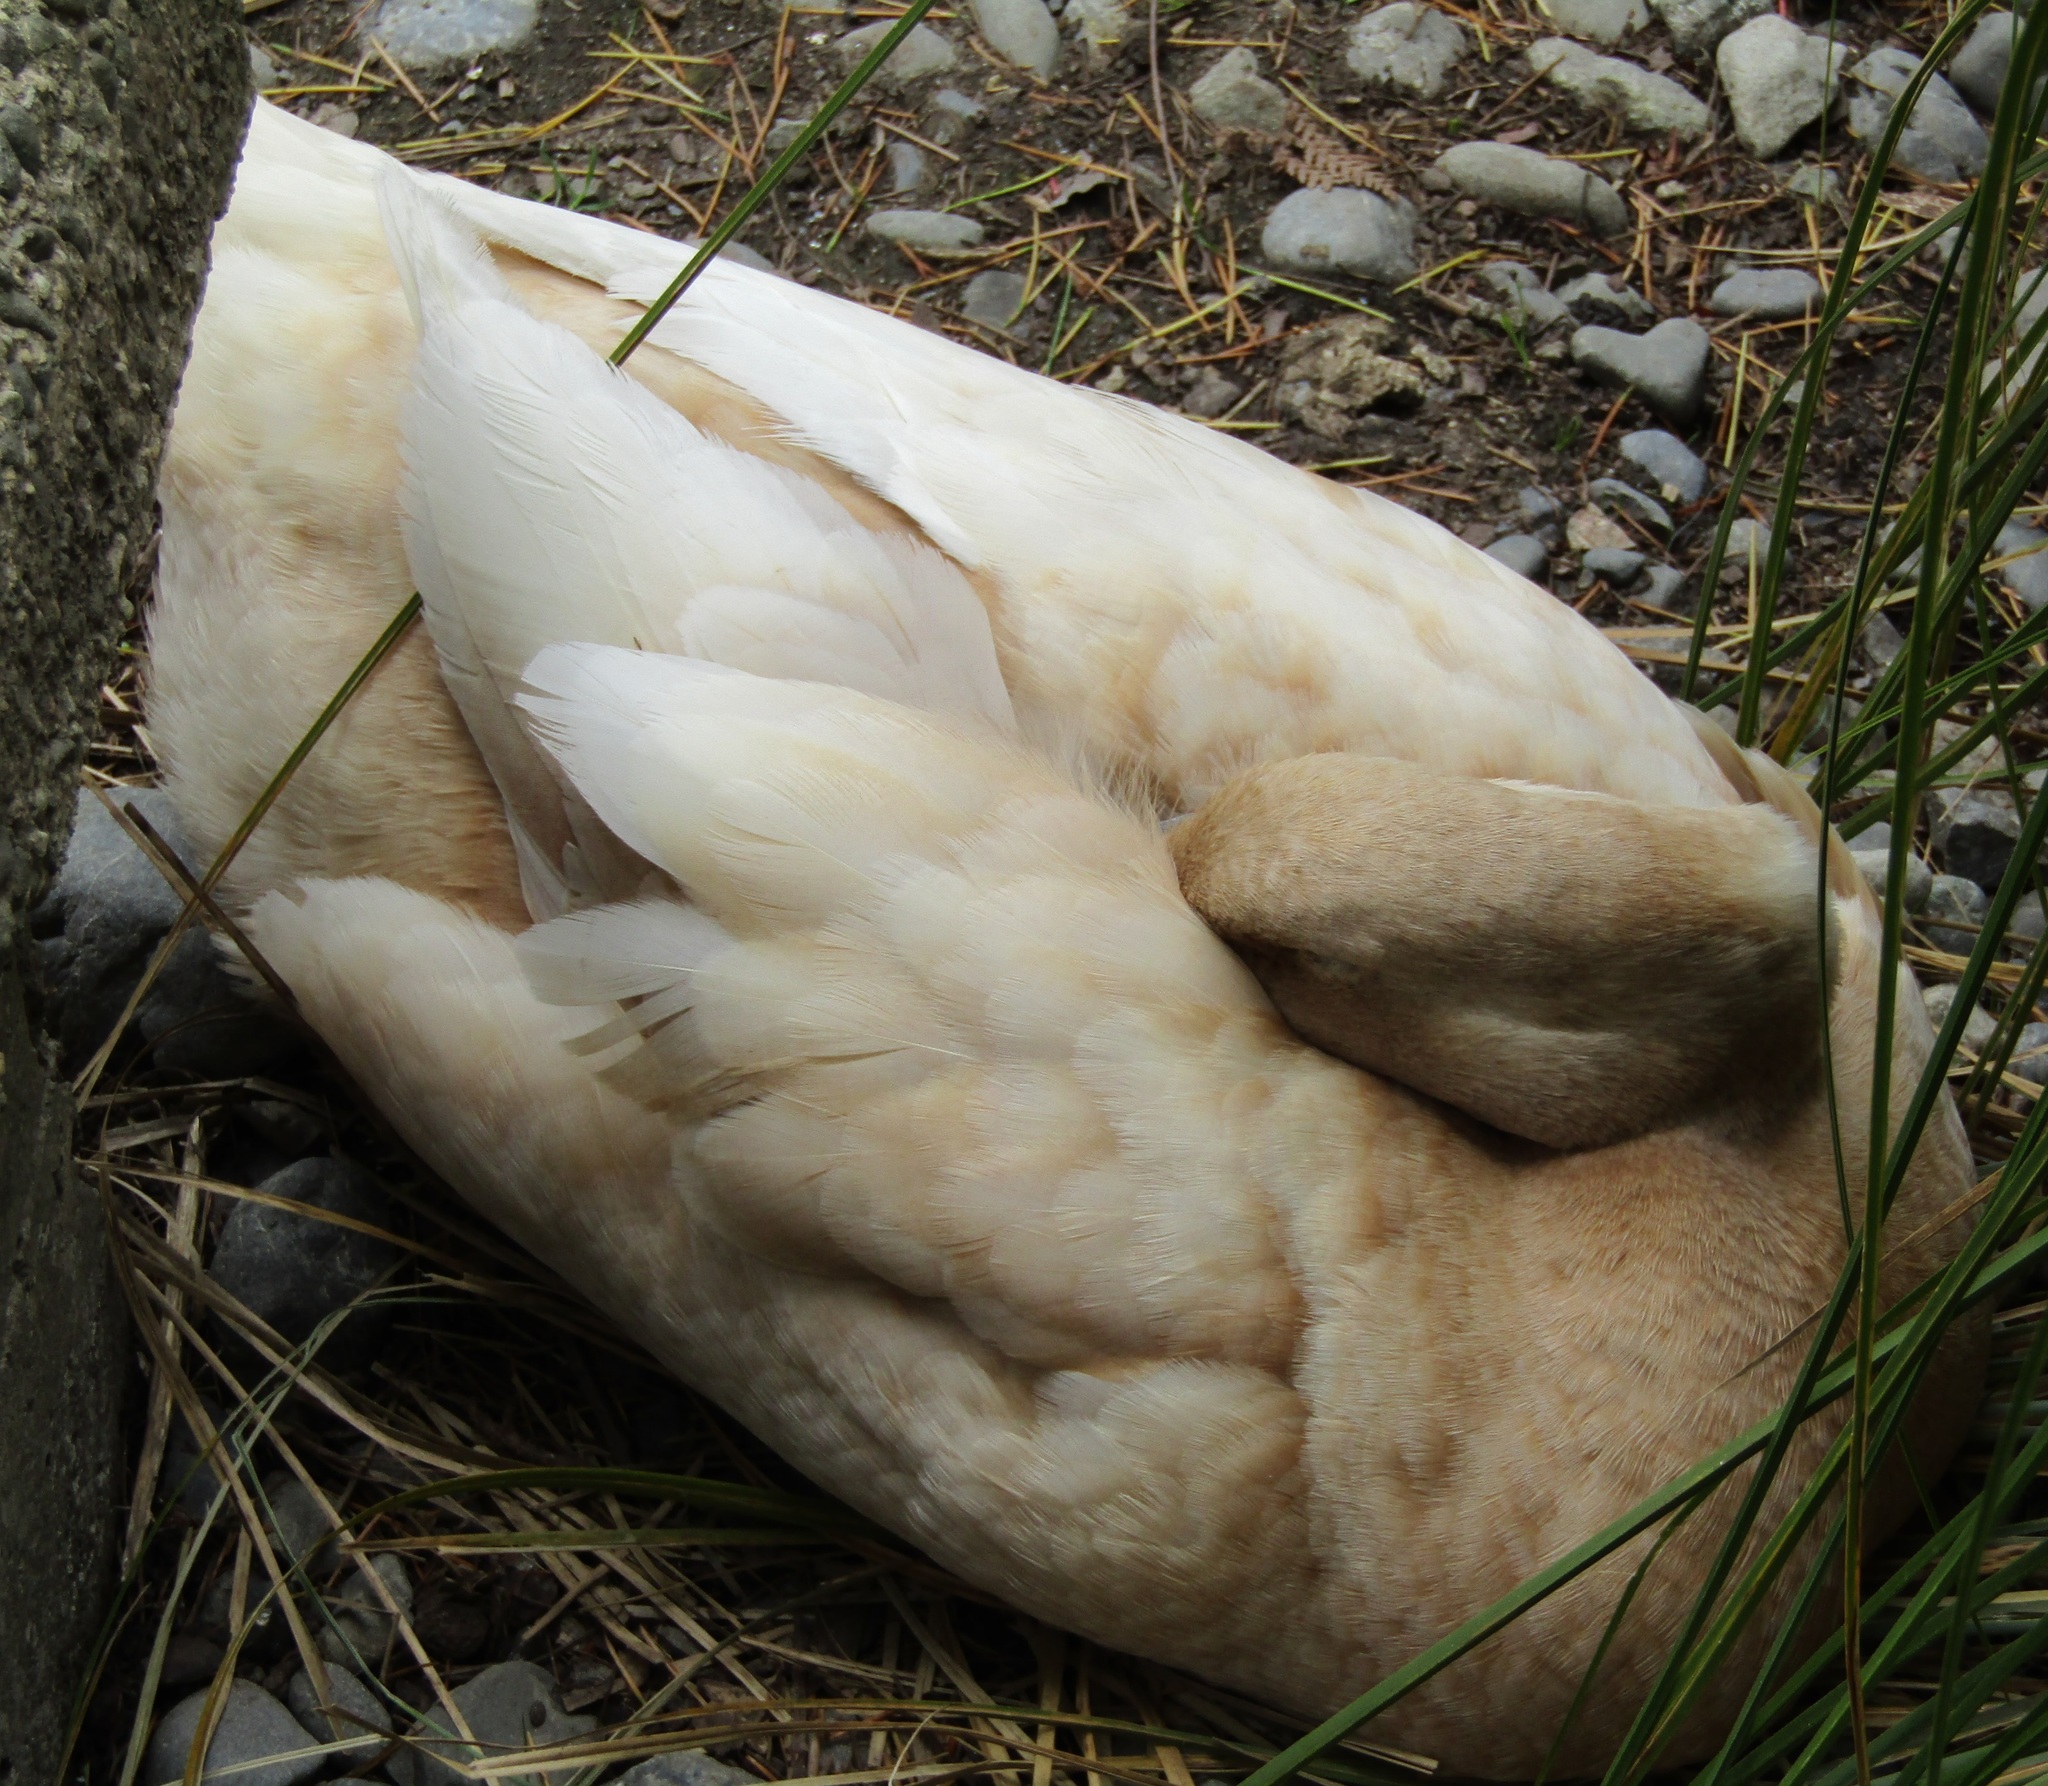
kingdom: Animalia
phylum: Chordata
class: Aves
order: Anseriformes
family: Anatidae
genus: Anas
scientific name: Anas platyrhynchos
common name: Mallard
